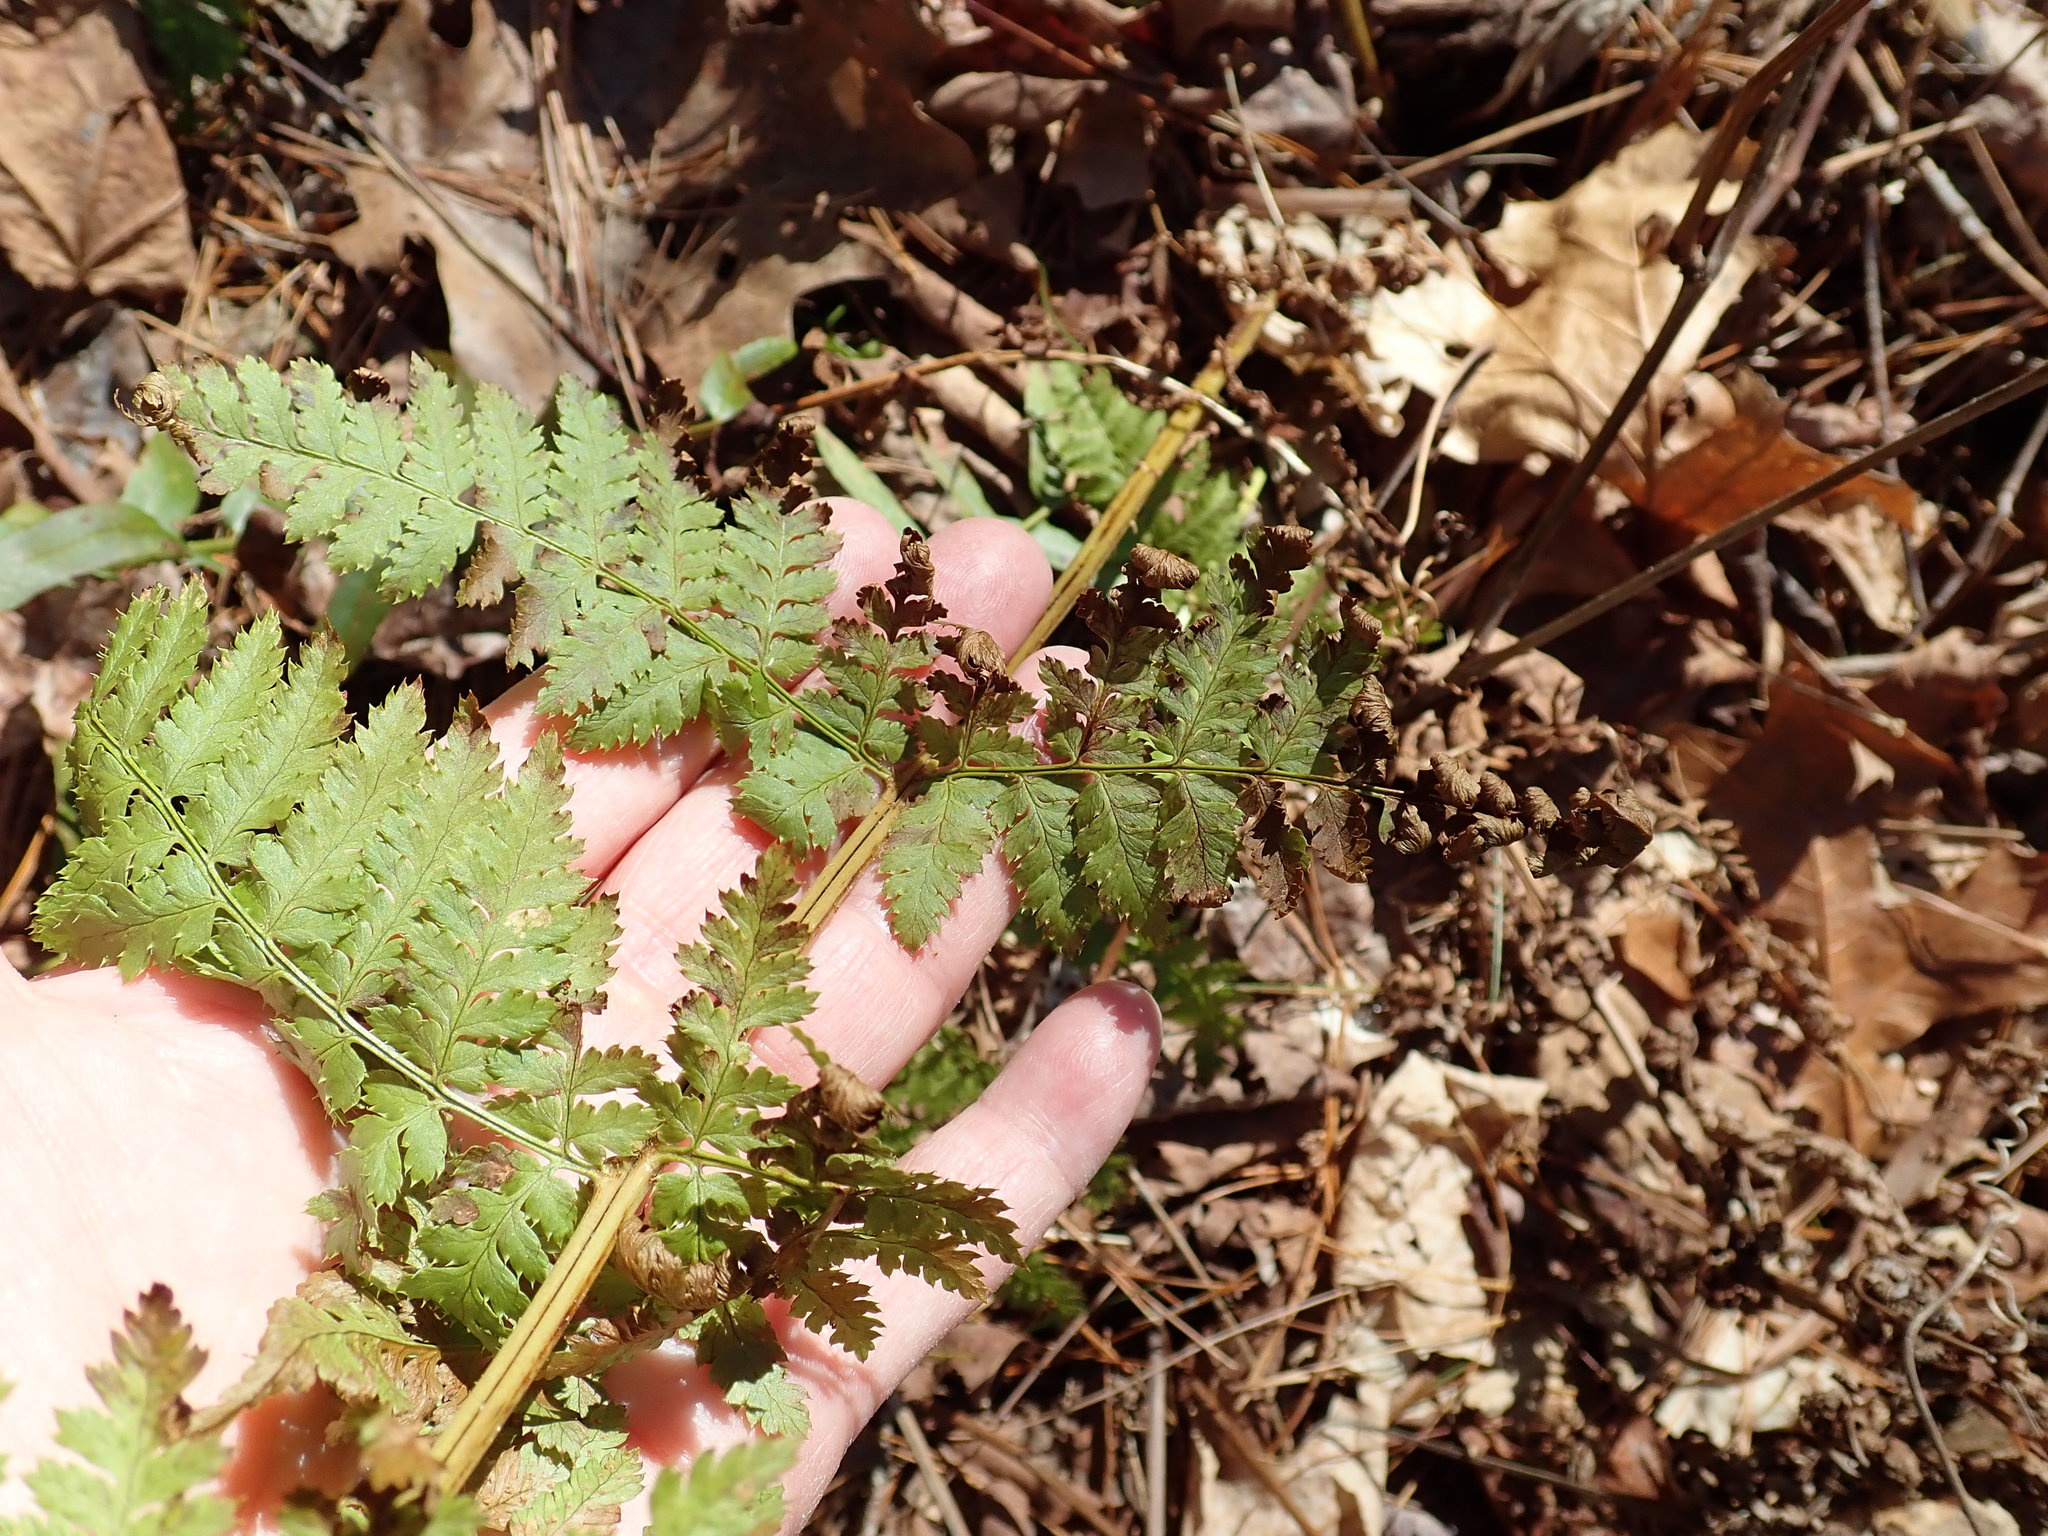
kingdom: Plantae
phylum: Tracheophyta
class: Polypodiopsida
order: Polypodiales
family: Dryopteridaceae
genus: Dryopteris
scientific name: Dryopteris intermedia
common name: Evergreen wood fern
